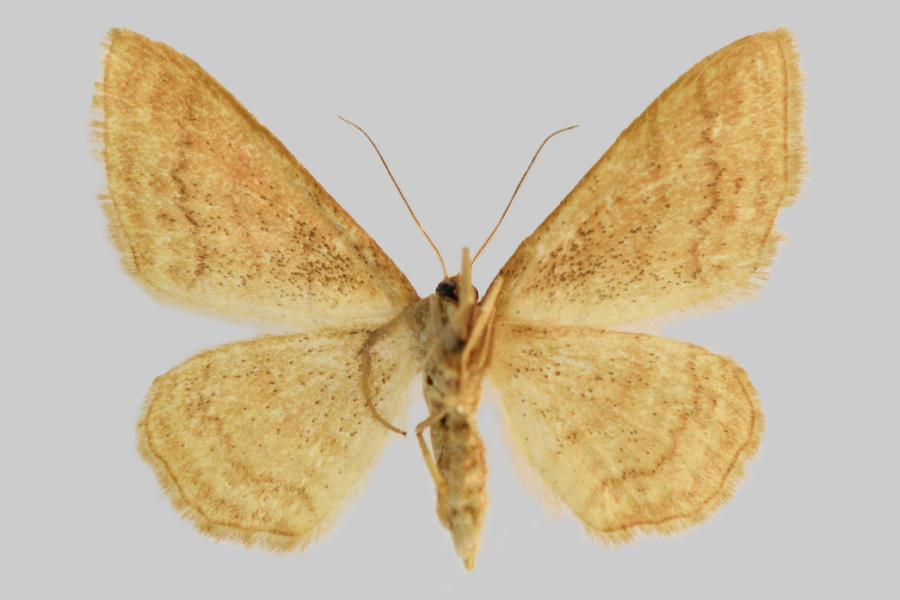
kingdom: Animalia
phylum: Arthropoda
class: Insecta
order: Lepidoptera
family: Geometridae
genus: Idaea
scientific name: Idaea rufaria
